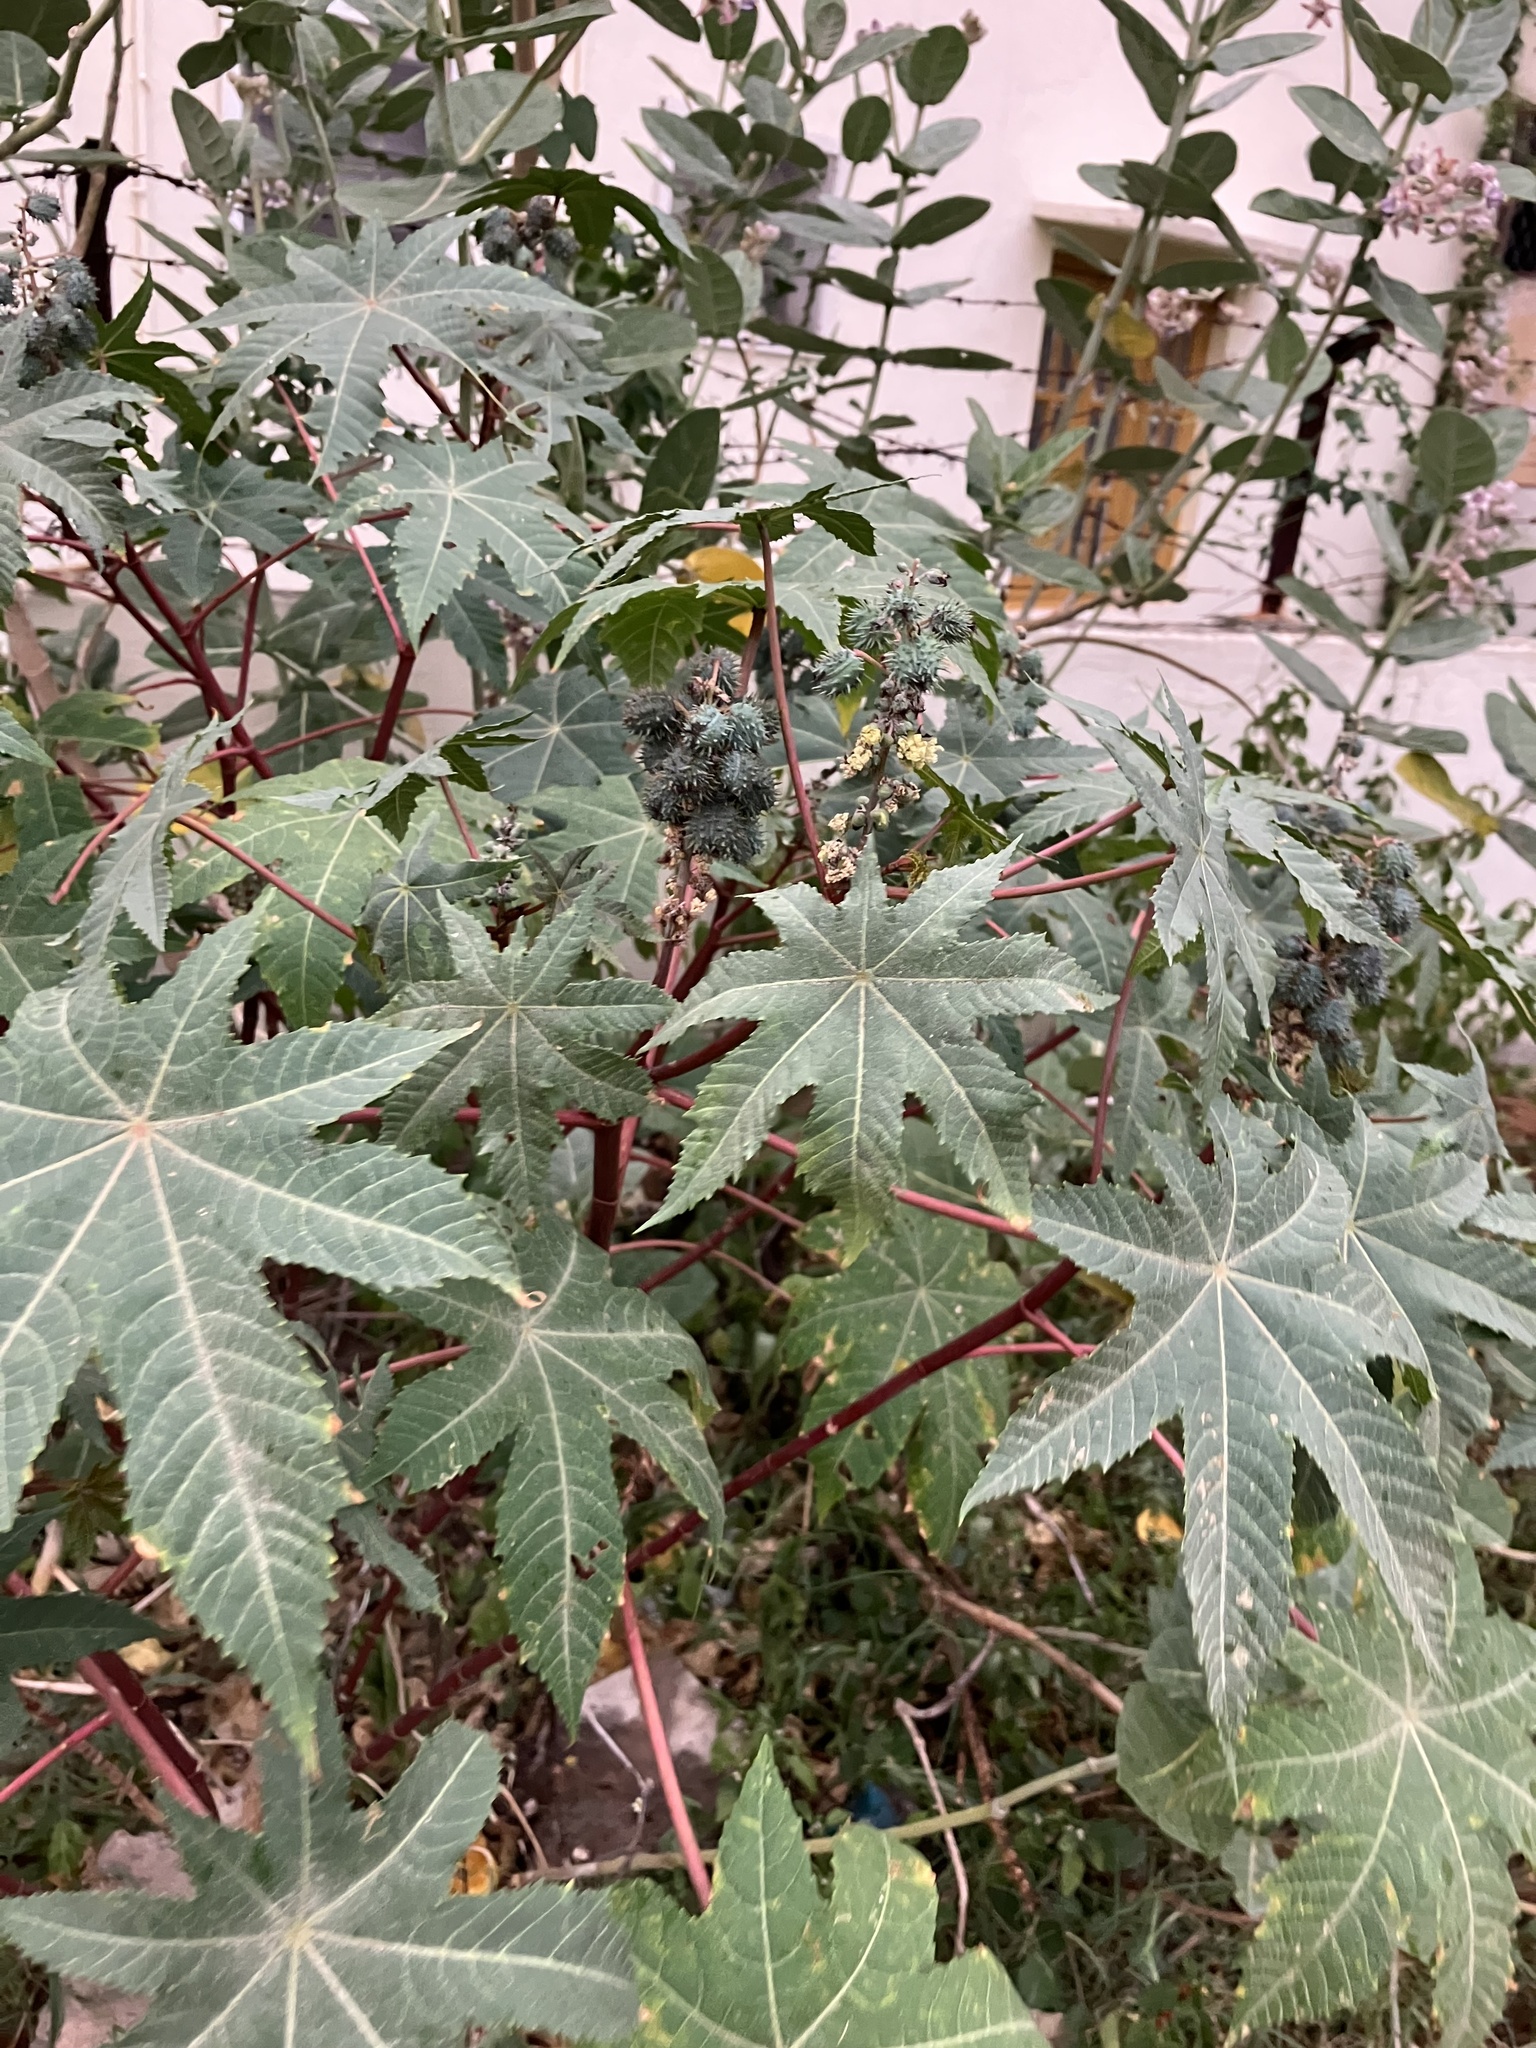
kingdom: Plantae
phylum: Tracheophyta
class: Magnoliopsida
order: Malpighiales
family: Euphorbiaceae
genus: Ricinus
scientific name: Ricinus communis
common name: Castor-oil-plant
